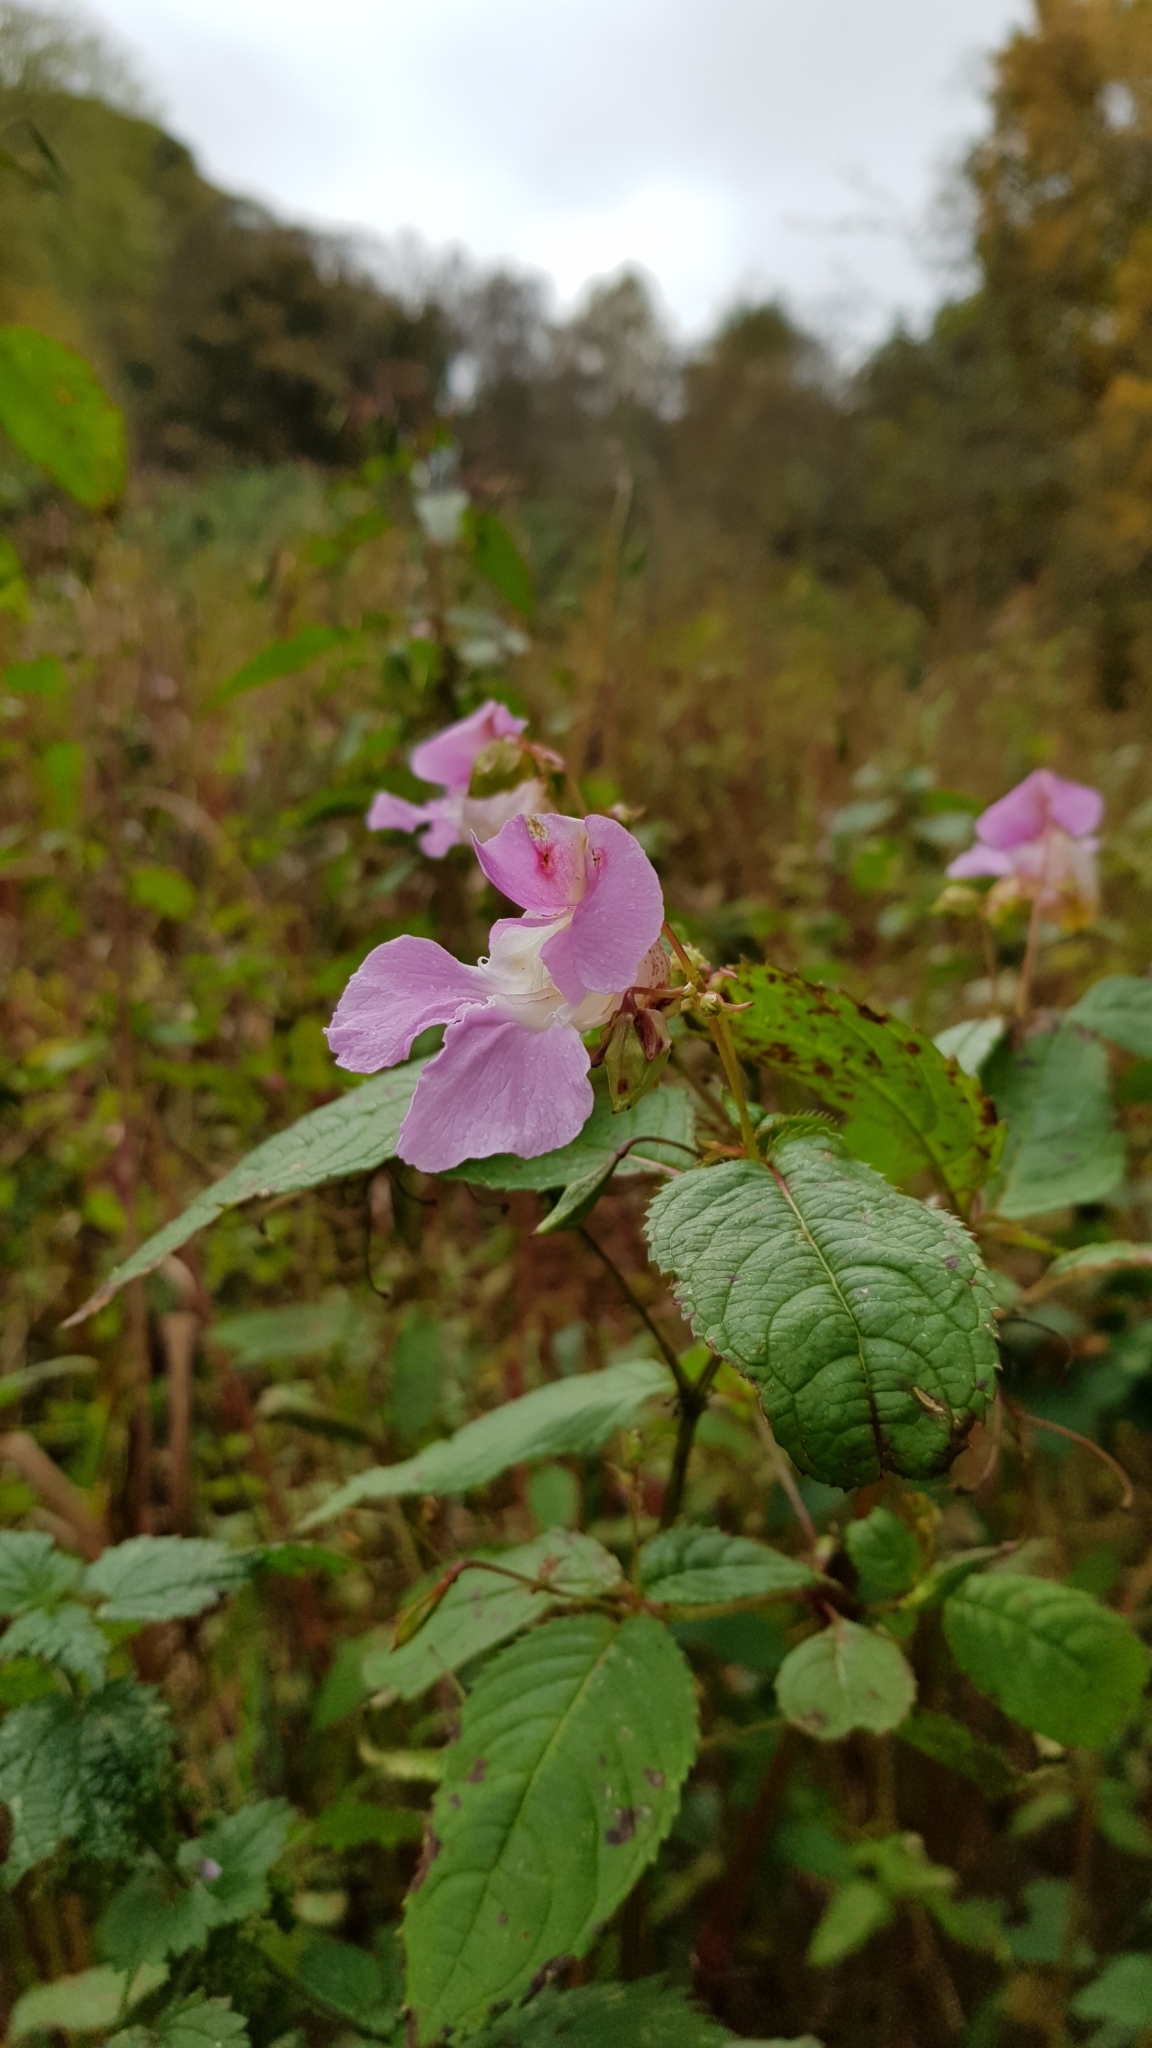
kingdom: Plantae
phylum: Tracheophyta
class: Magnoliopsida
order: Ericales
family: Balsaminaceae
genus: Impatiens
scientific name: Impatiens glandulifera
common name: Himalayan balsam
